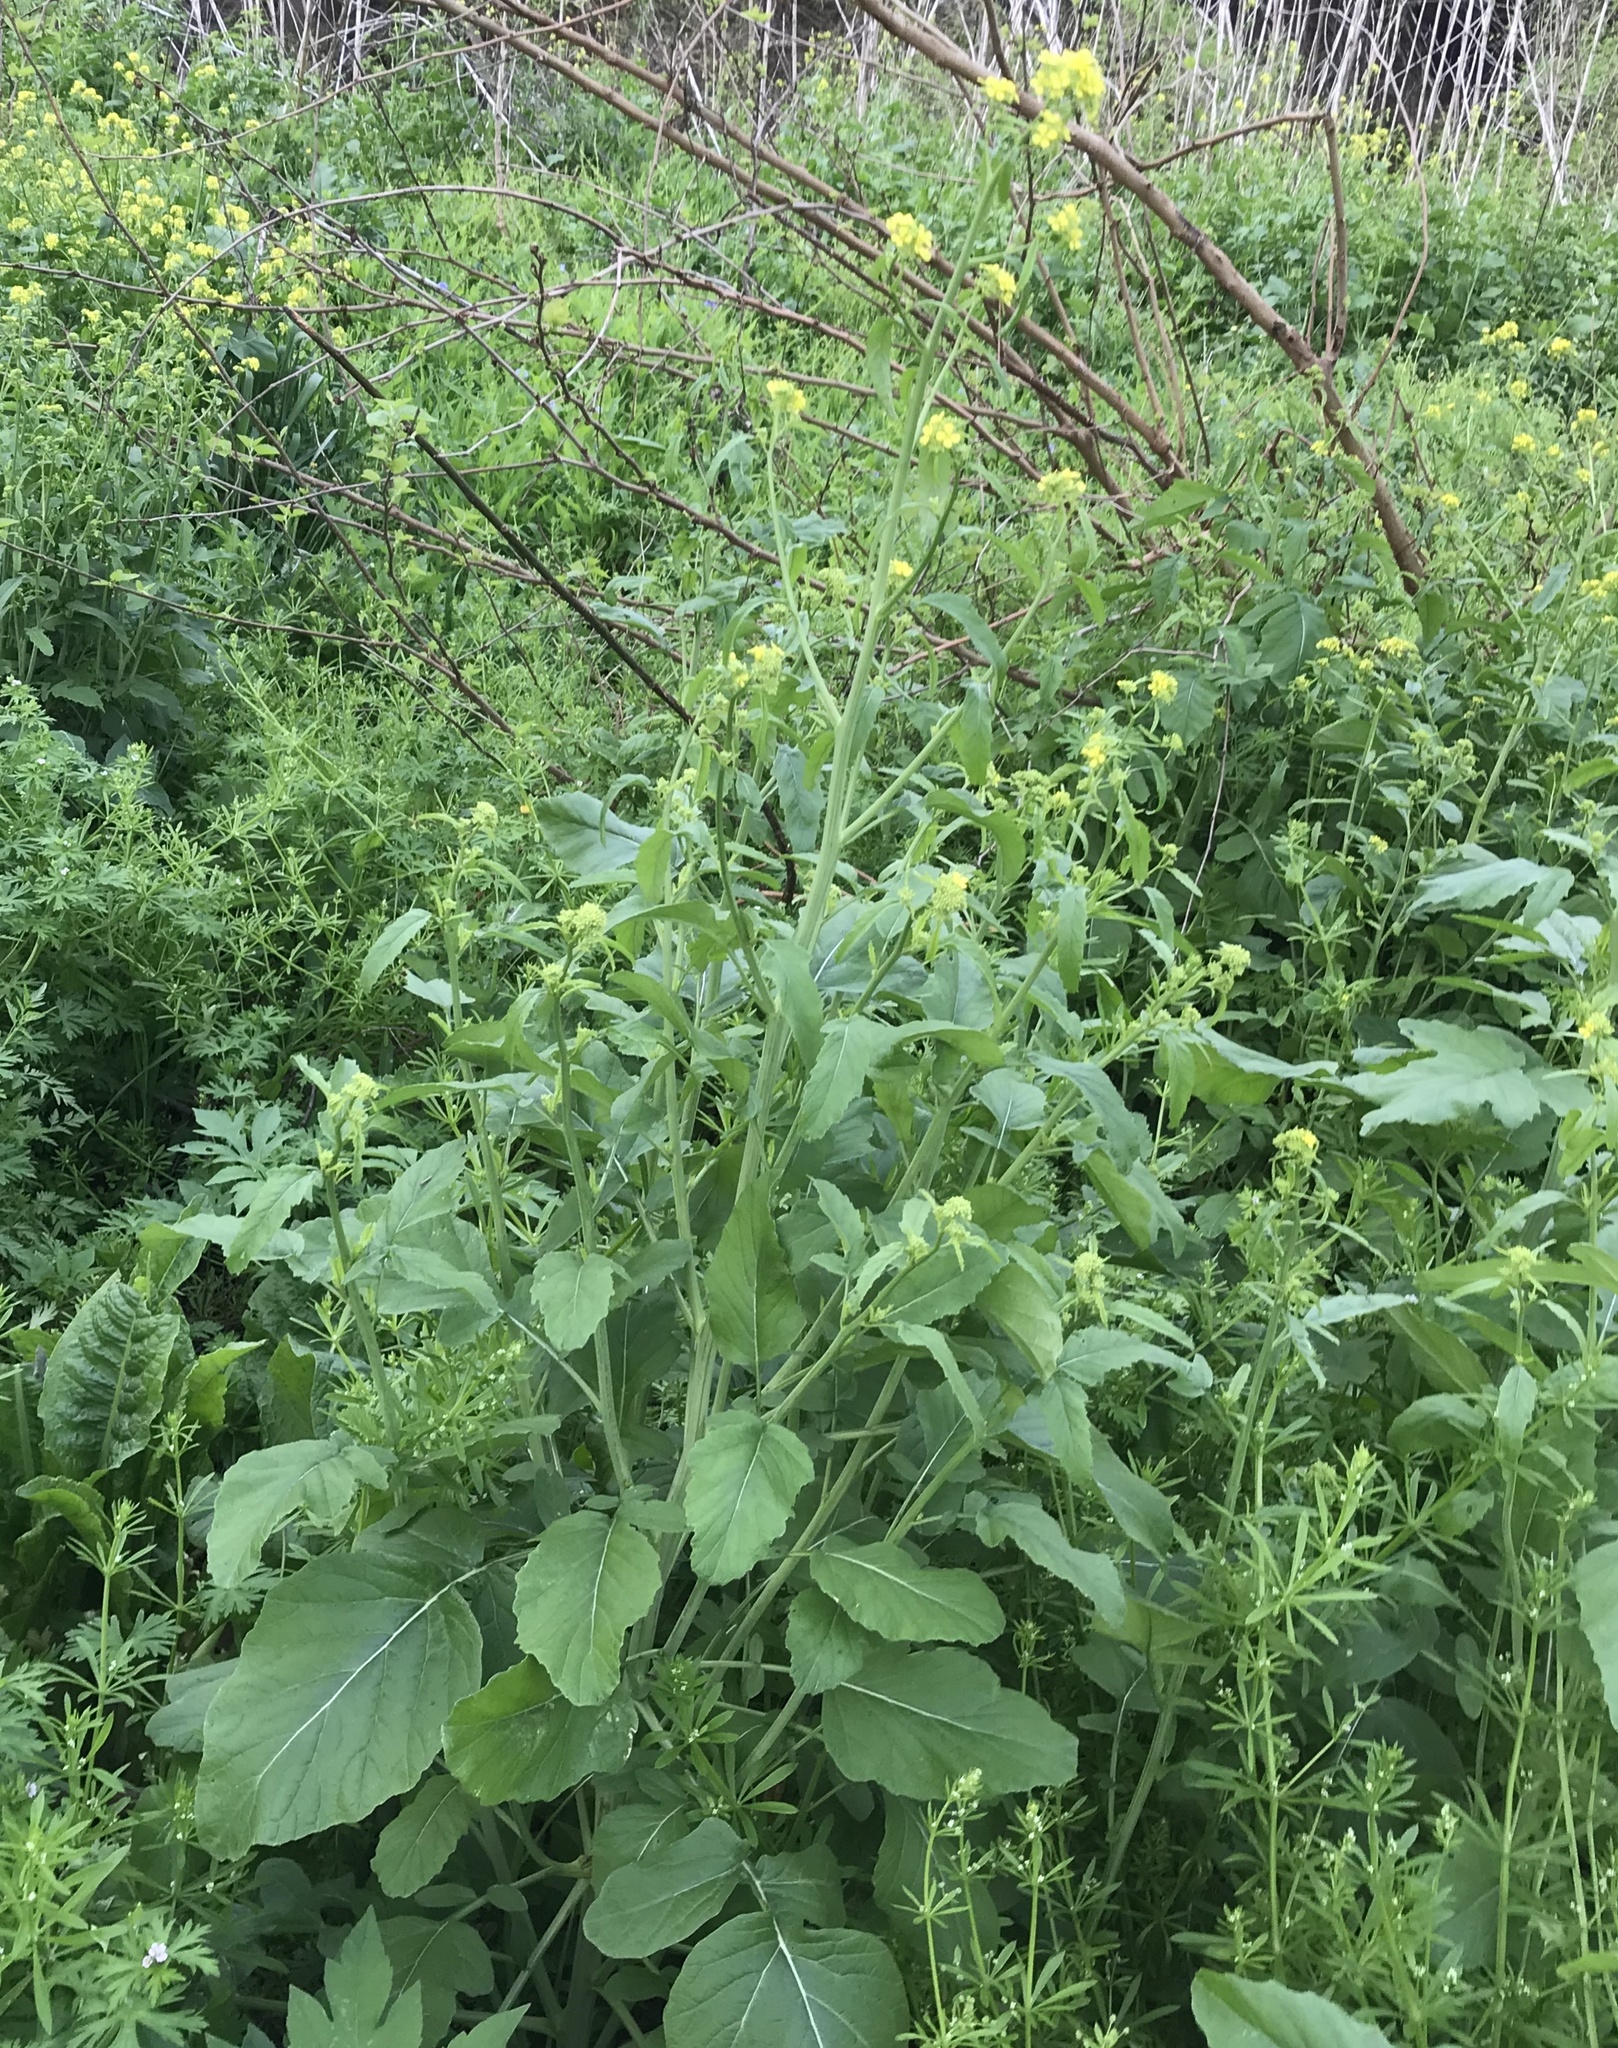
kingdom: Plantae
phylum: Tracheophyta
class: Magnoliopsida
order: Brassicales
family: Brassicaceae
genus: Rapistrum
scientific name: Rapistrum rugosum
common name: Annual bastardcabbage
